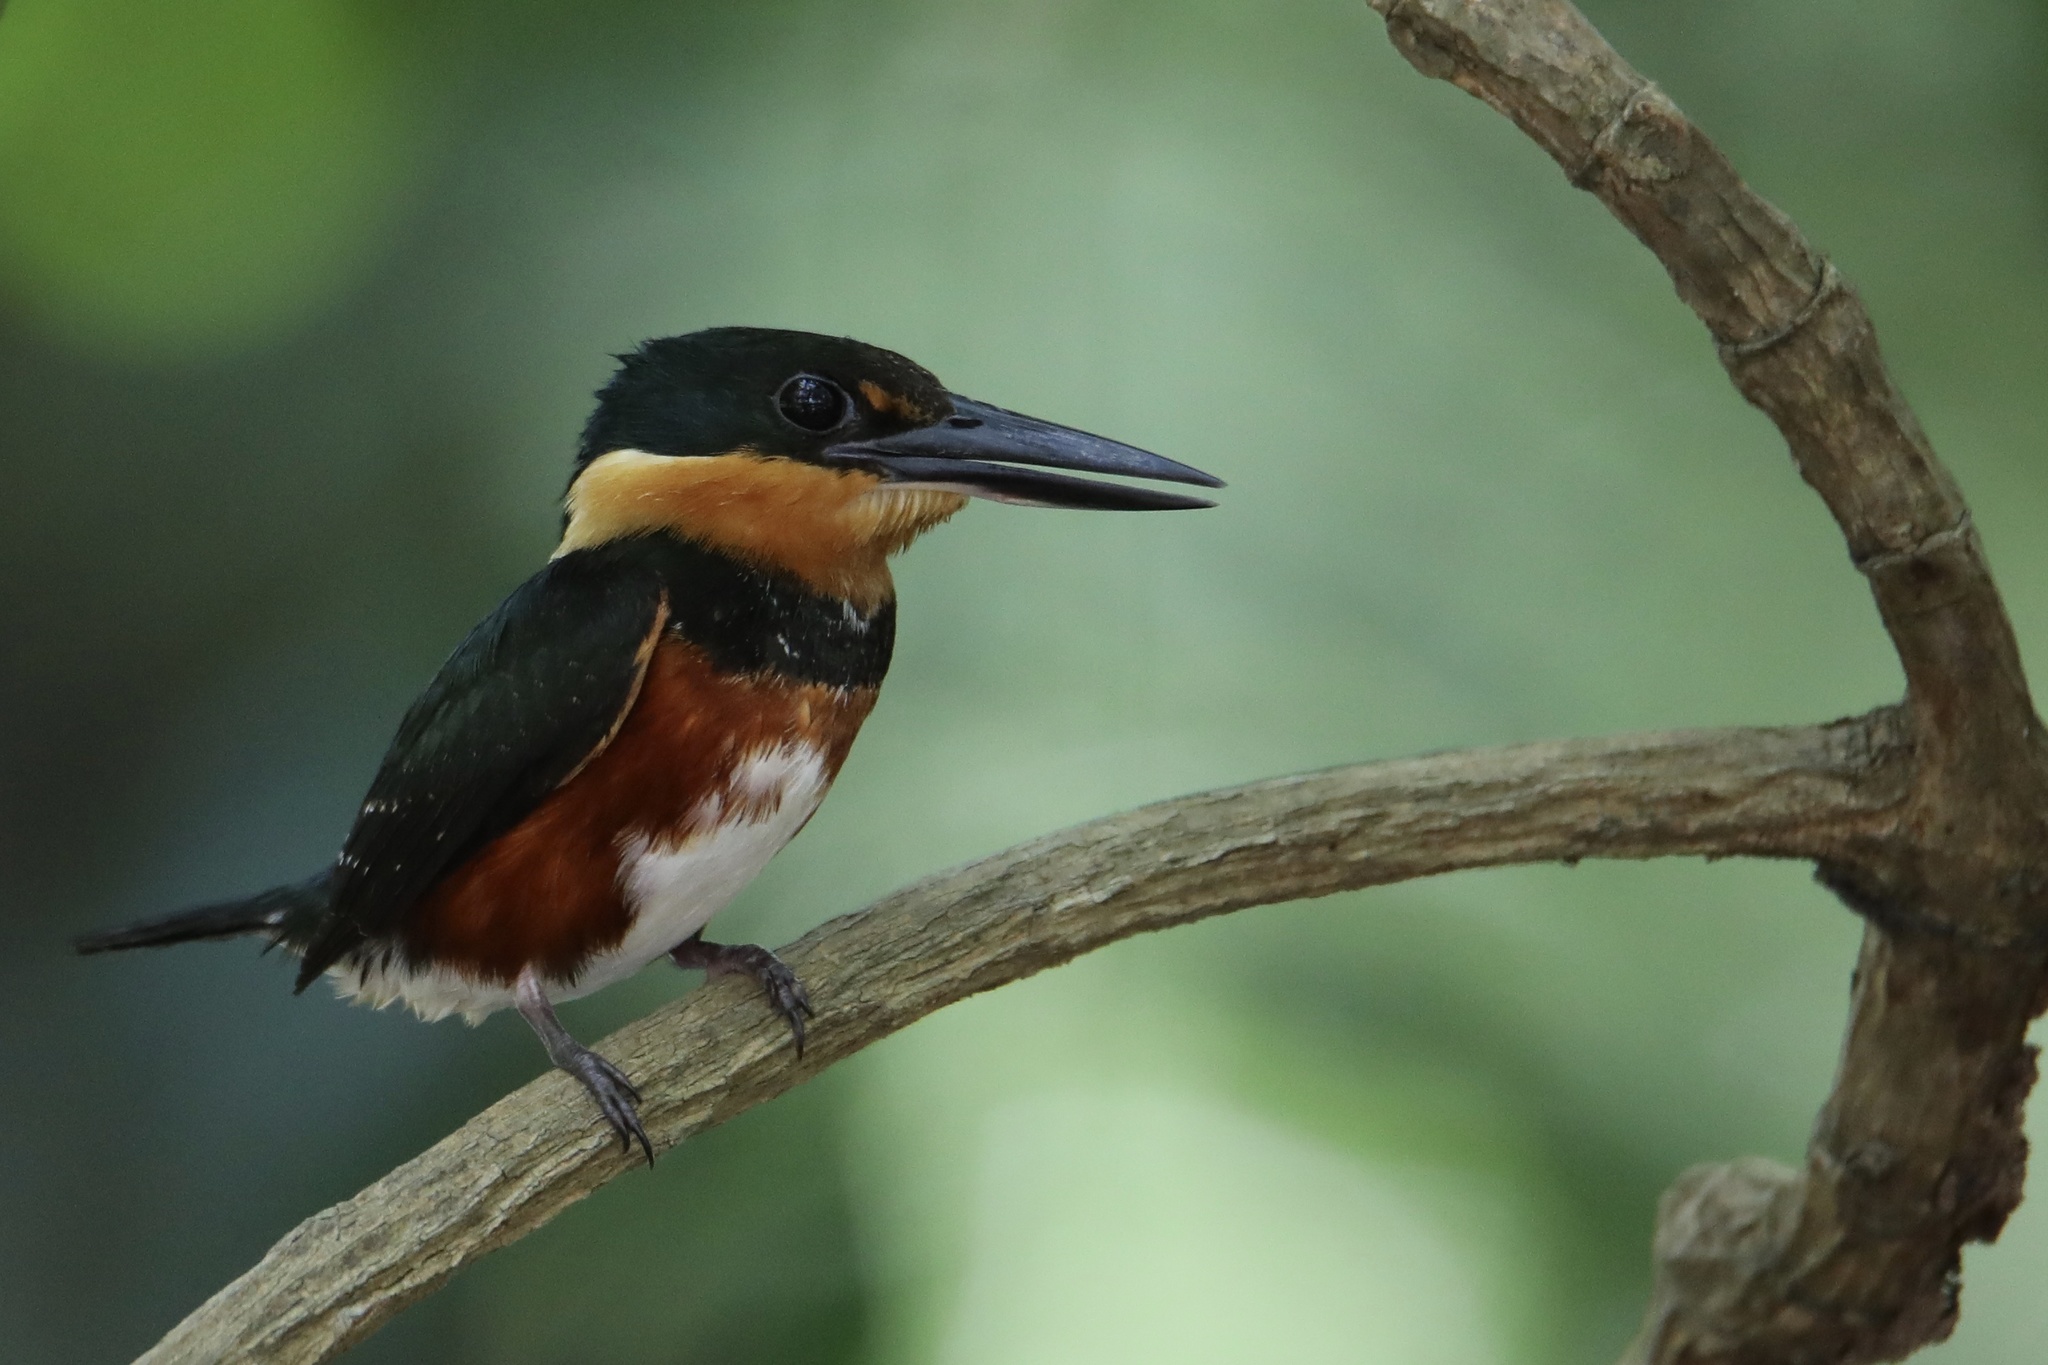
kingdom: Animalia
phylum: Chordata
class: Aves
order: Coraciiformes
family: Alcedinidae
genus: Chloroceryle
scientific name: Chloroceryle aenea
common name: American pygmy kingfisher
